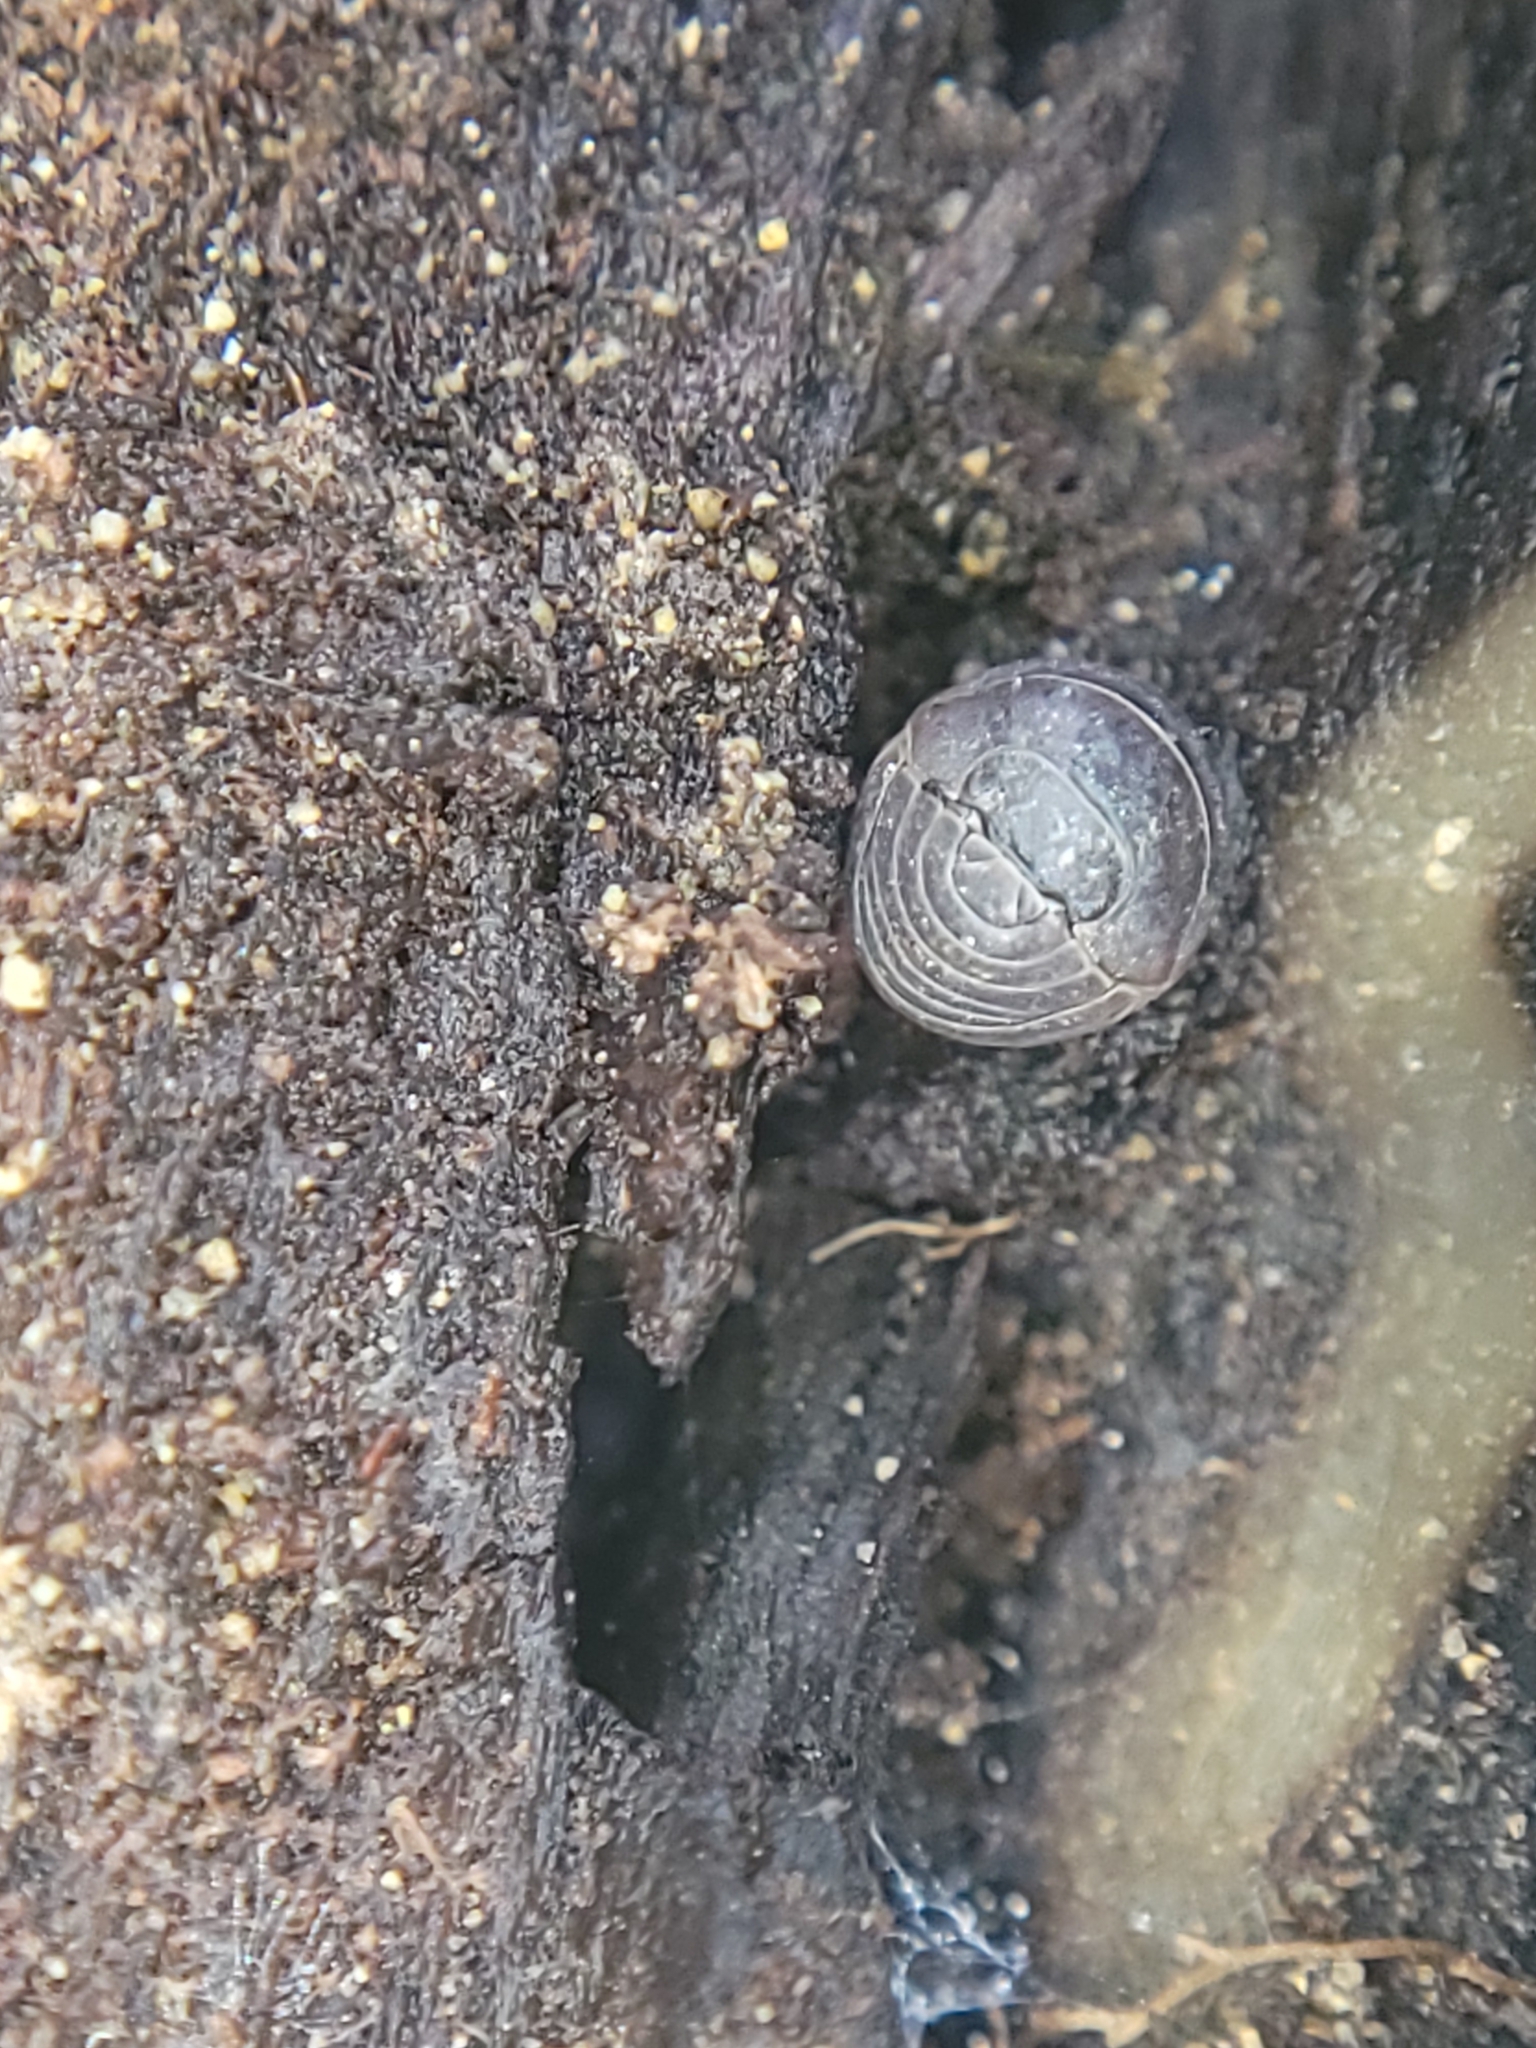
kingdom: Animalia
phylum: Arthropoda
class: Malacostraca
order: Isopoda
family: Armadillidiidae
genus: Armadillidium
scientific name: Armadillidium vulgare
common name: Common pill woodlouse
